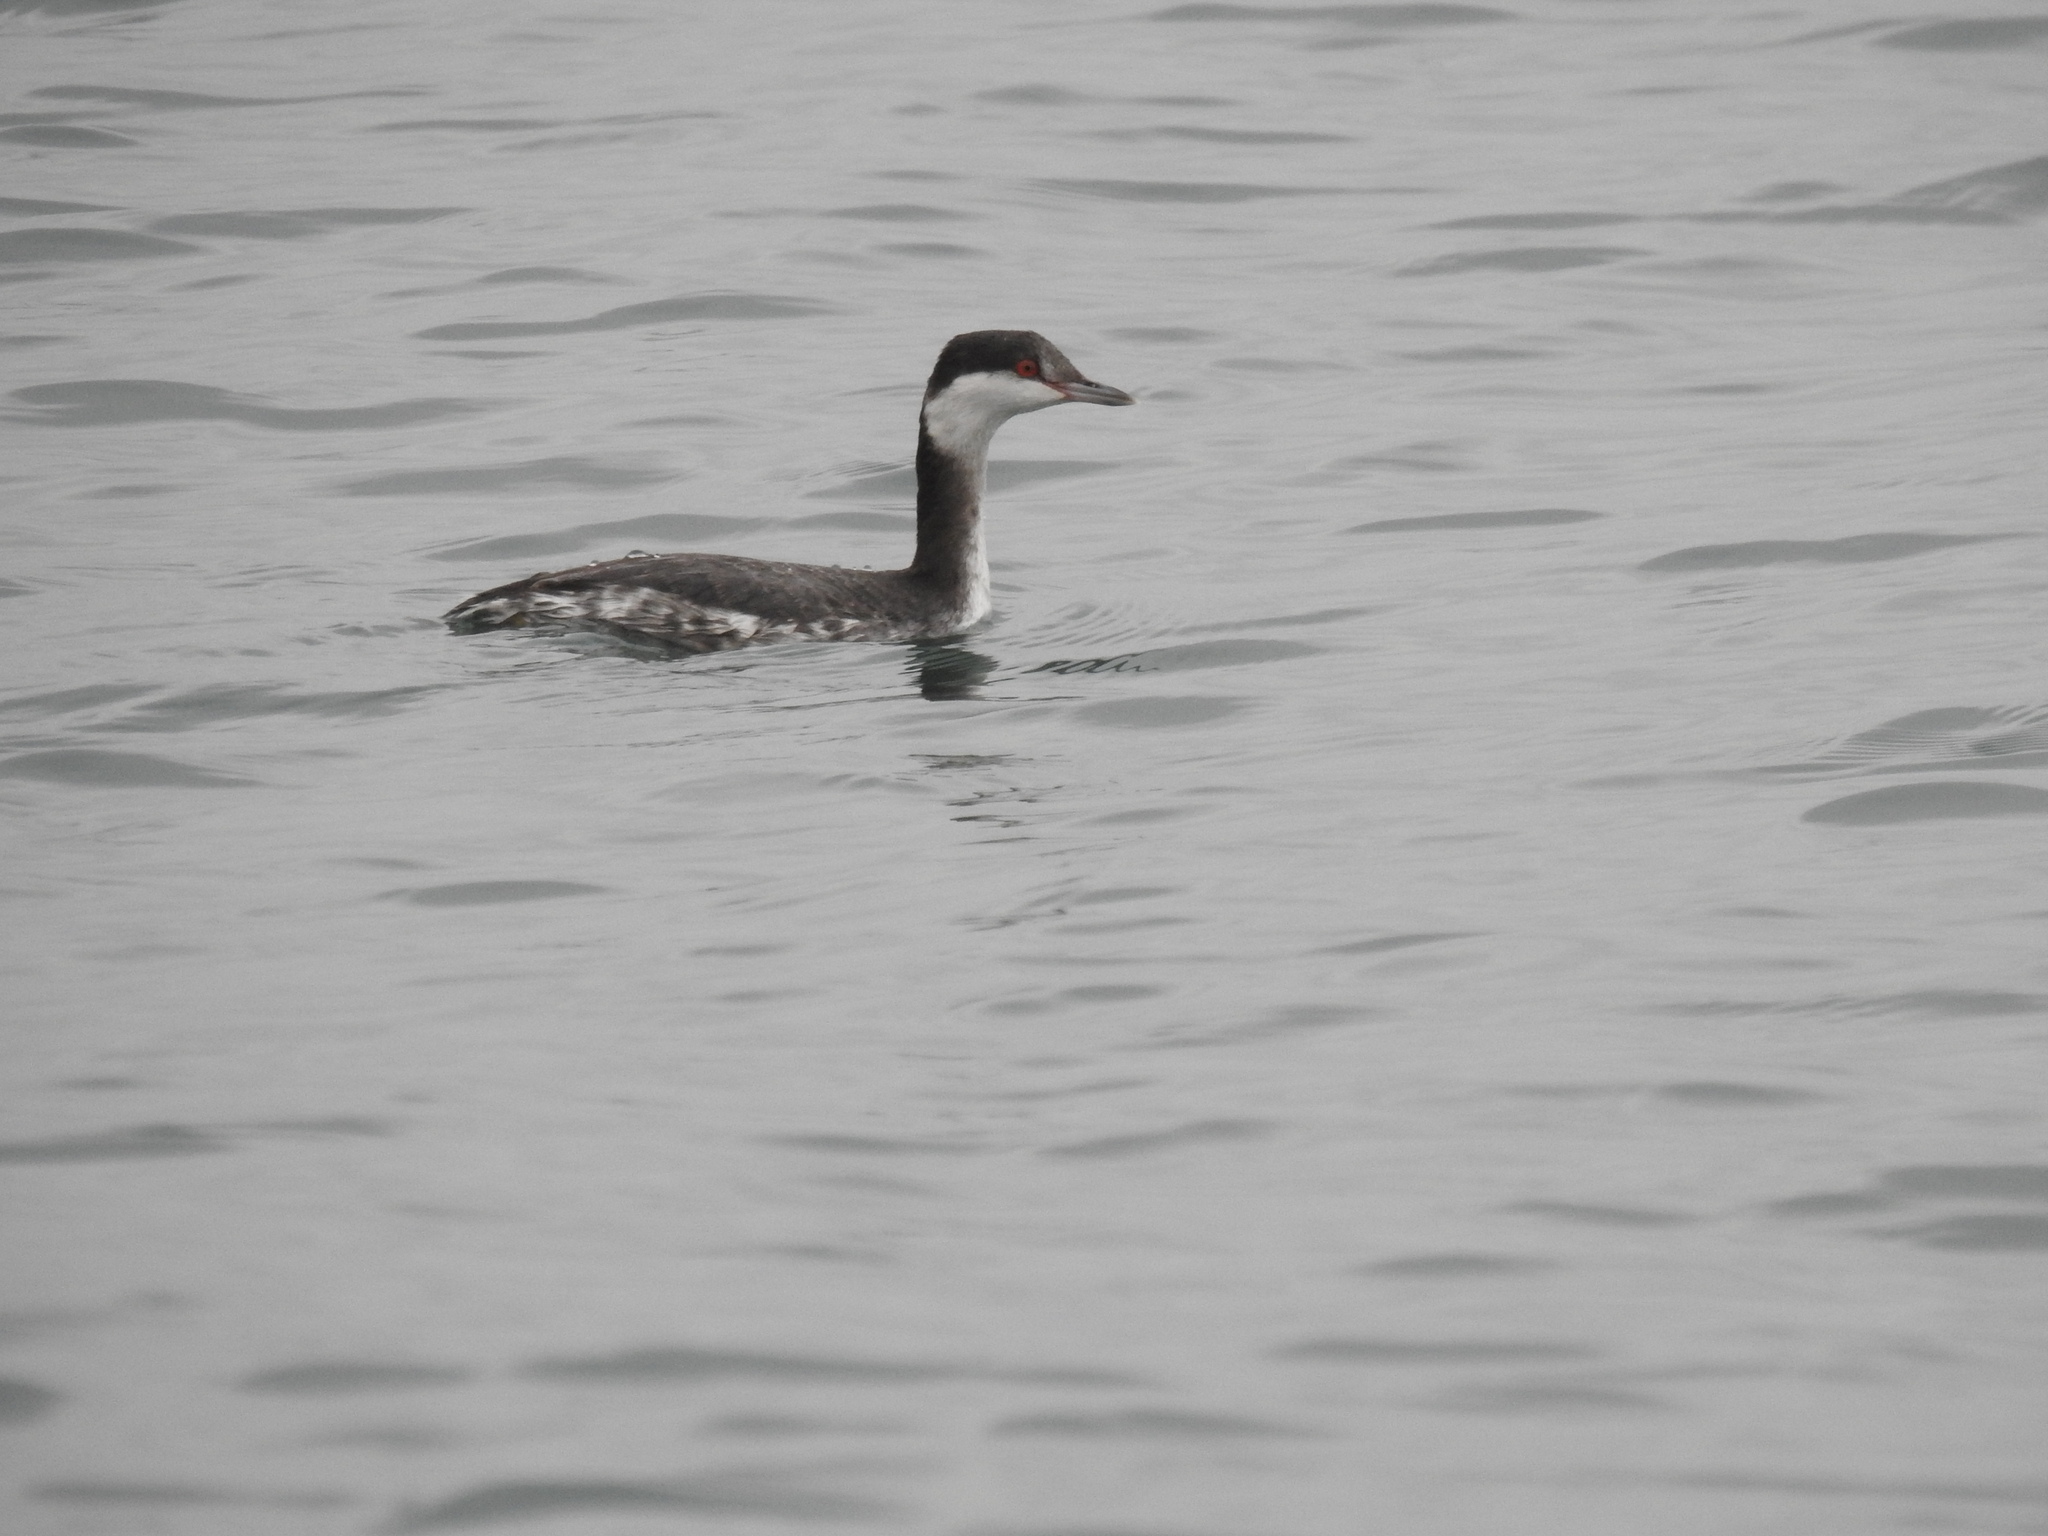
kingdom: Animalia
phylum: Chordata
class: Aves
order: Podicipediformes
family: Podicipedidae
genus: Podiceps
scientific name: Podiceps auritus
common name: Horned grebe
